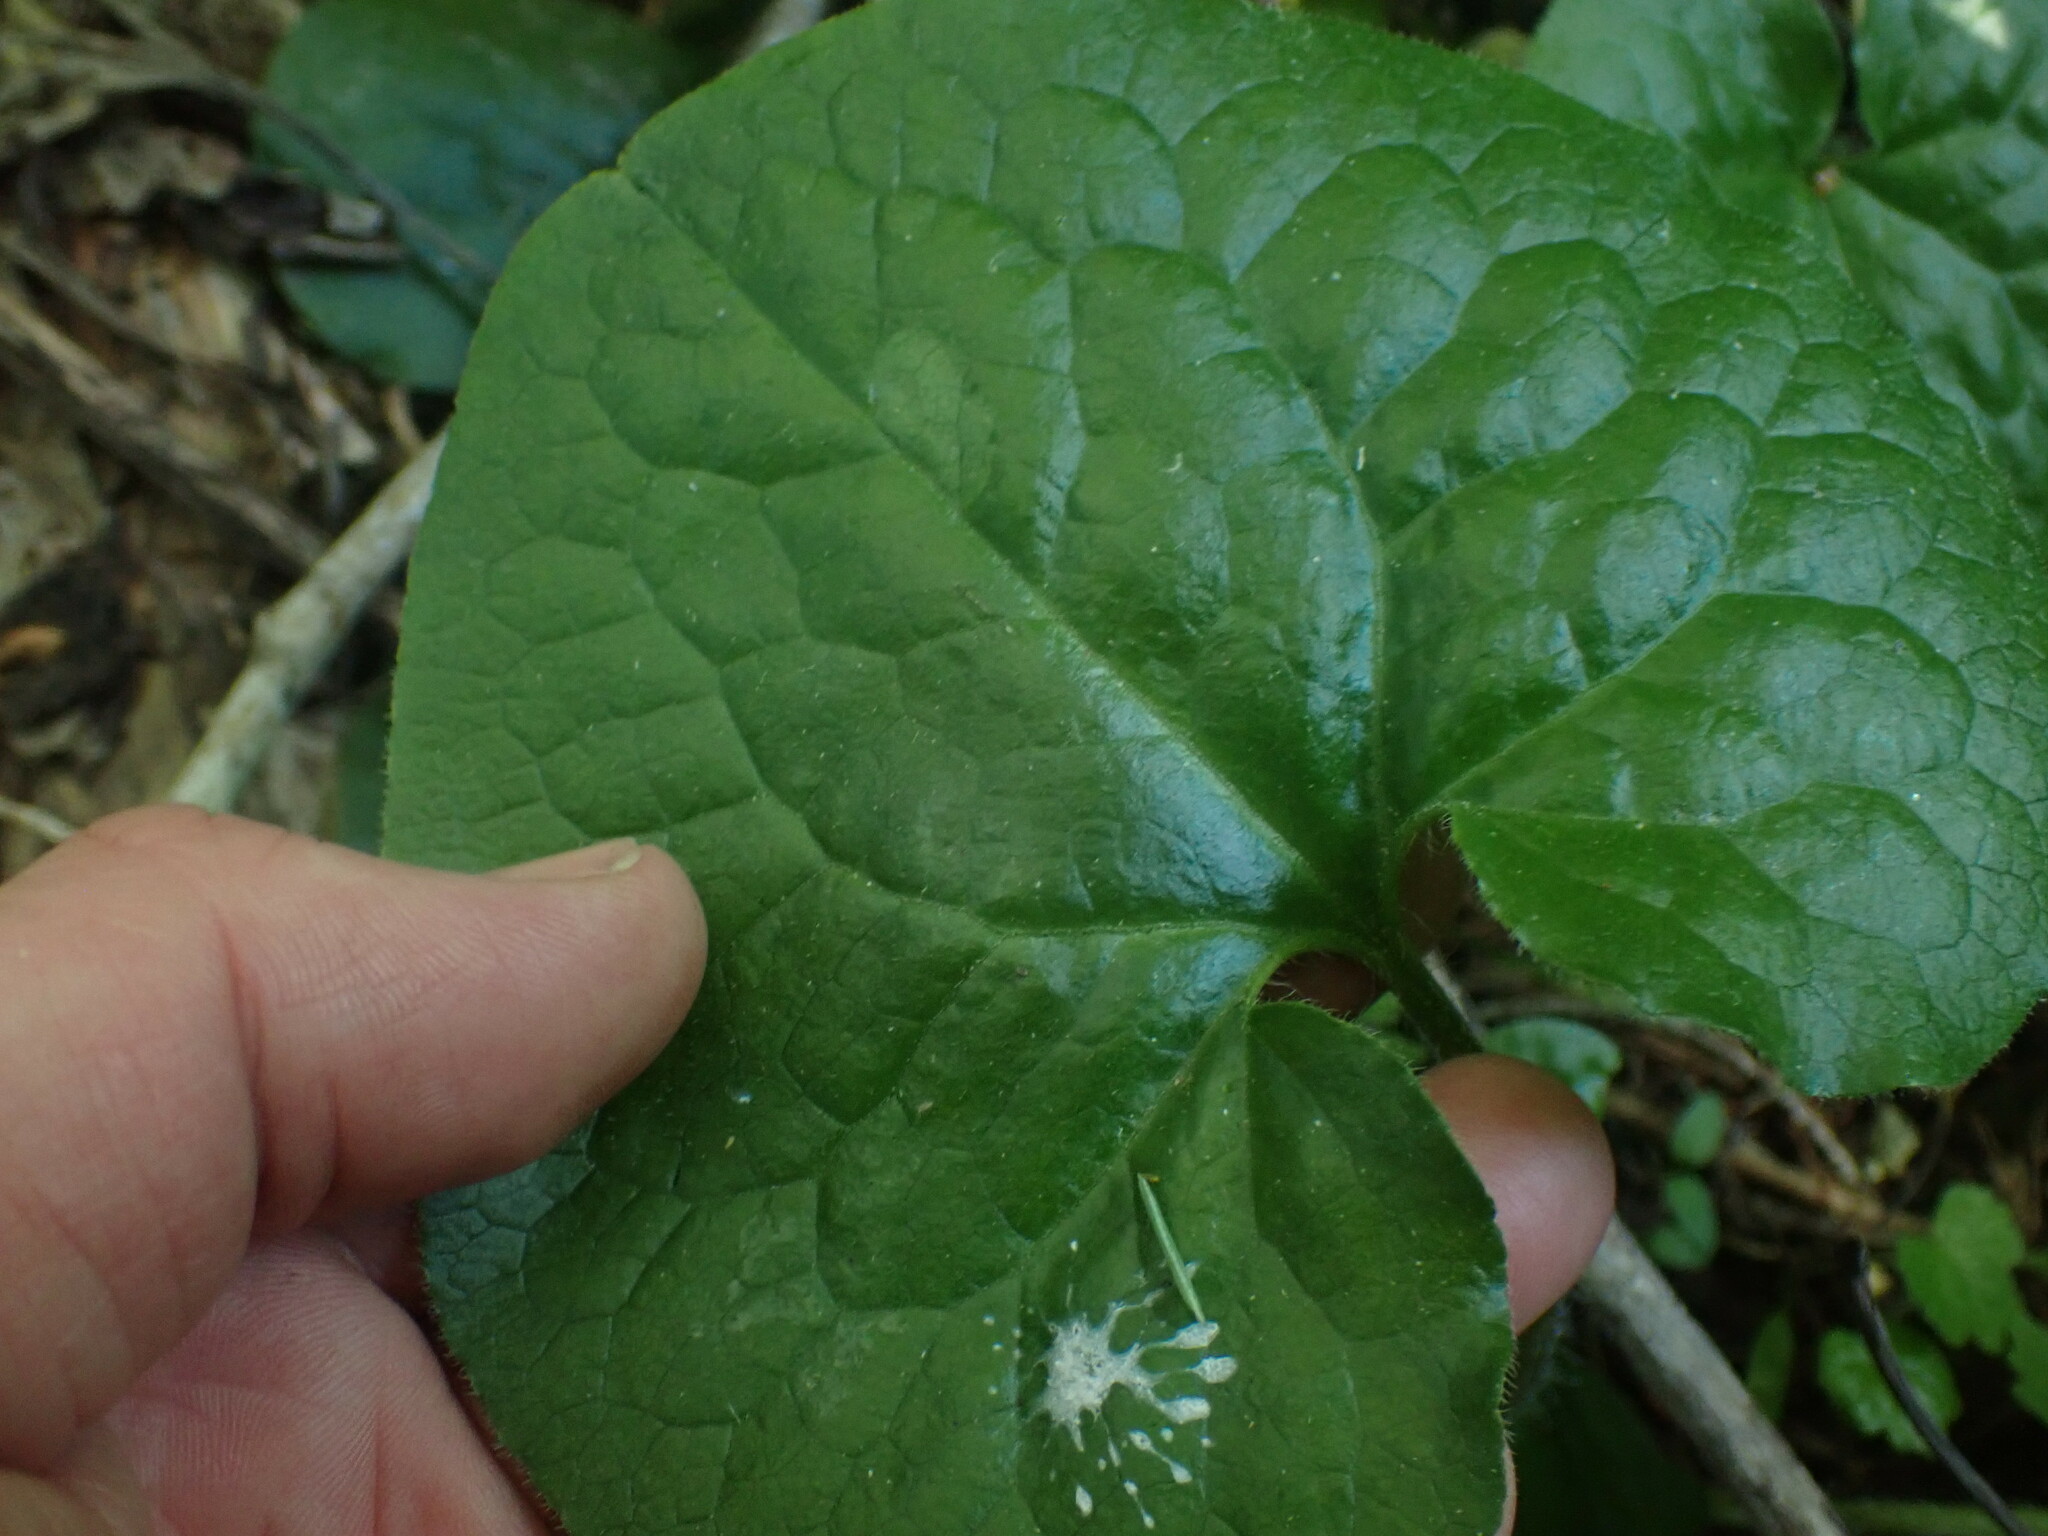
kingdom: Plantae
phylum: Tracheophyta
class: Magnoliopsida
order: Piperales
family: Aristolochiaceae
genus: Asarum
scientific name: Asarum caudatum
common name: Wild ginger
